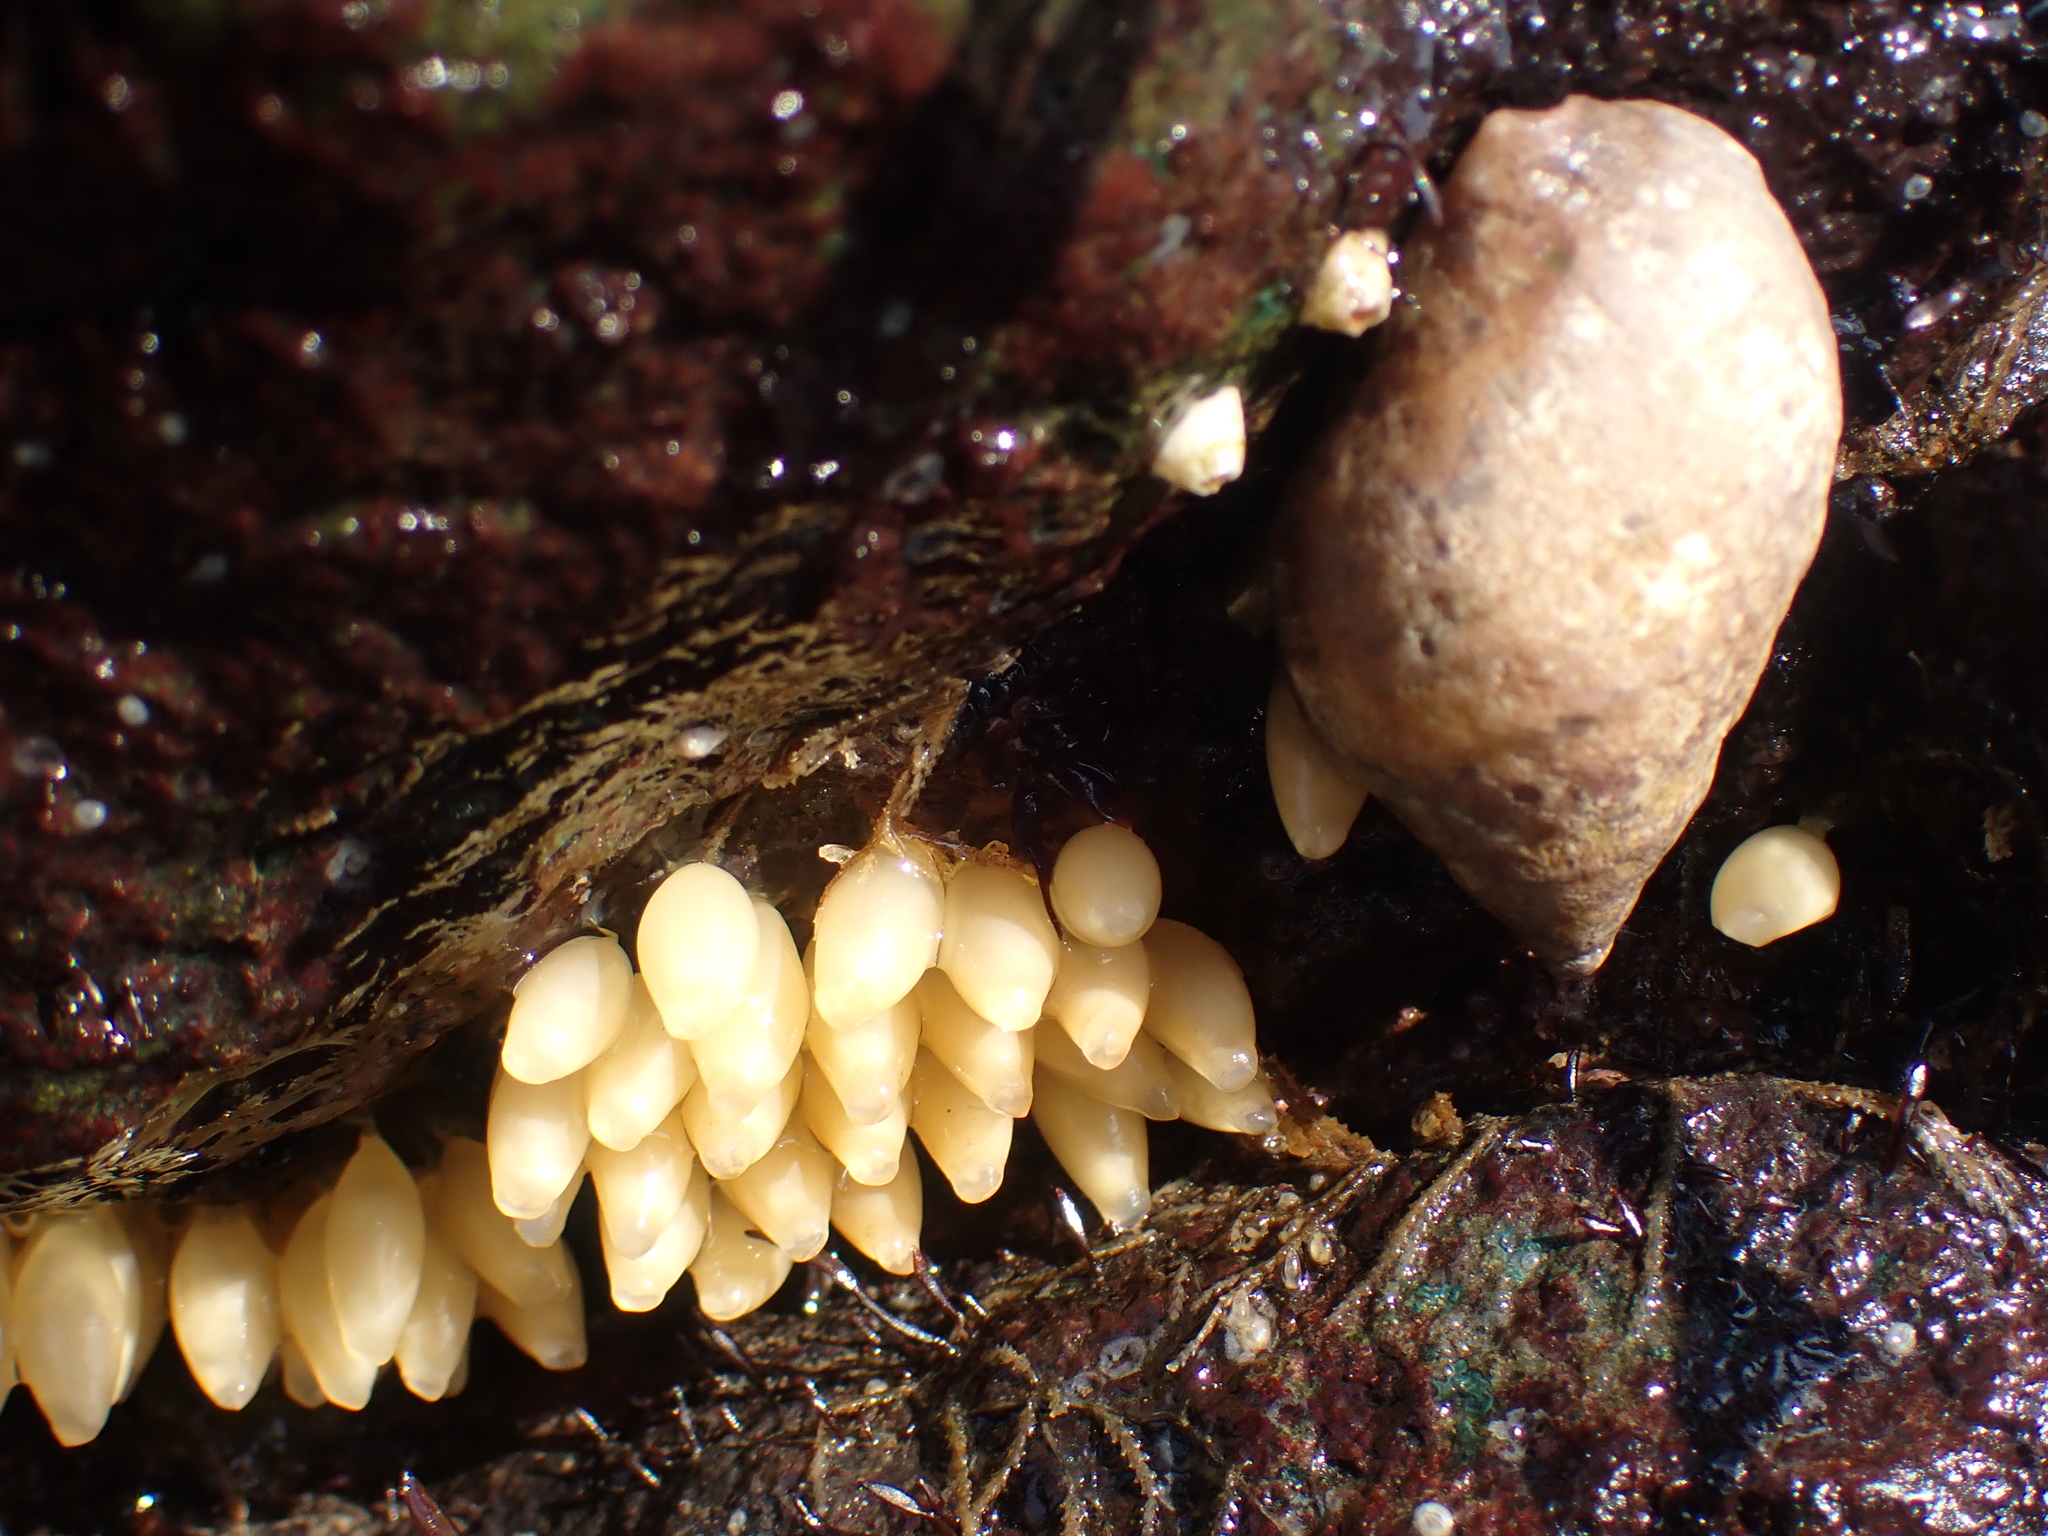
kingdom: Animalia
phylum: Mollusca
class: Gastropoda
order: Neogastropoda
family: Muricidae
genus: Nucella
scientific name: Nucella lapillus
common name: Dog whelk
